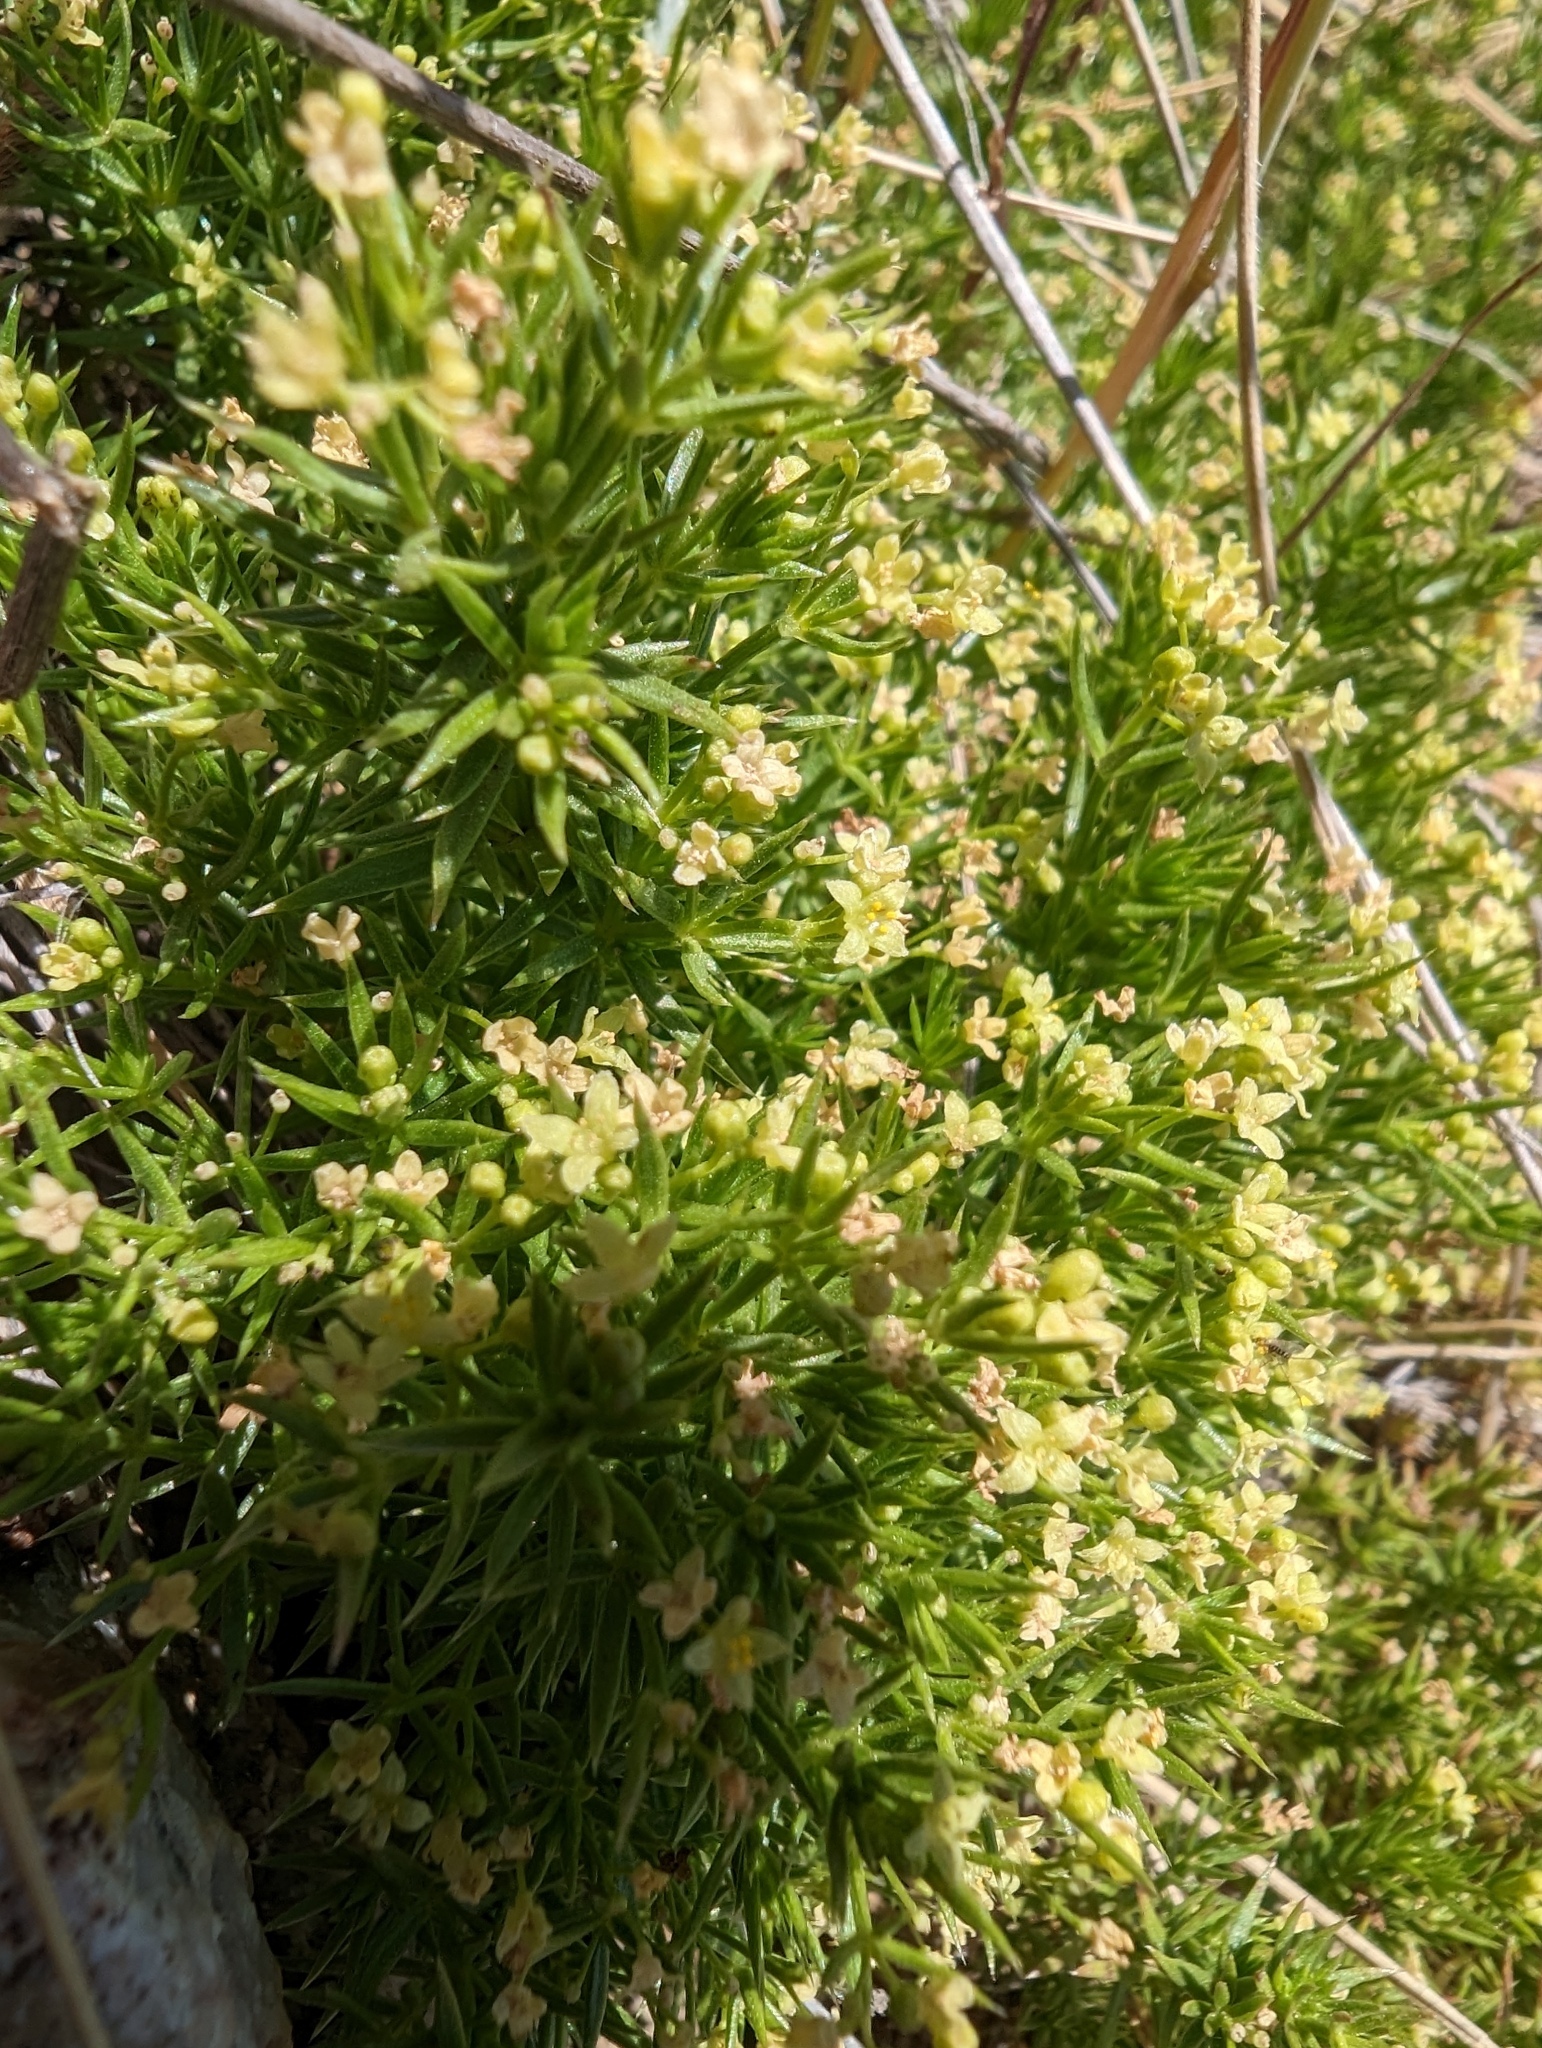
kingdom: Plantae
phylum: Tracheophyta
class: Magnoliopsida
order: Gentianales
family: Rubiaceae
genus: Galium
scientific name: Galium andrewsii
